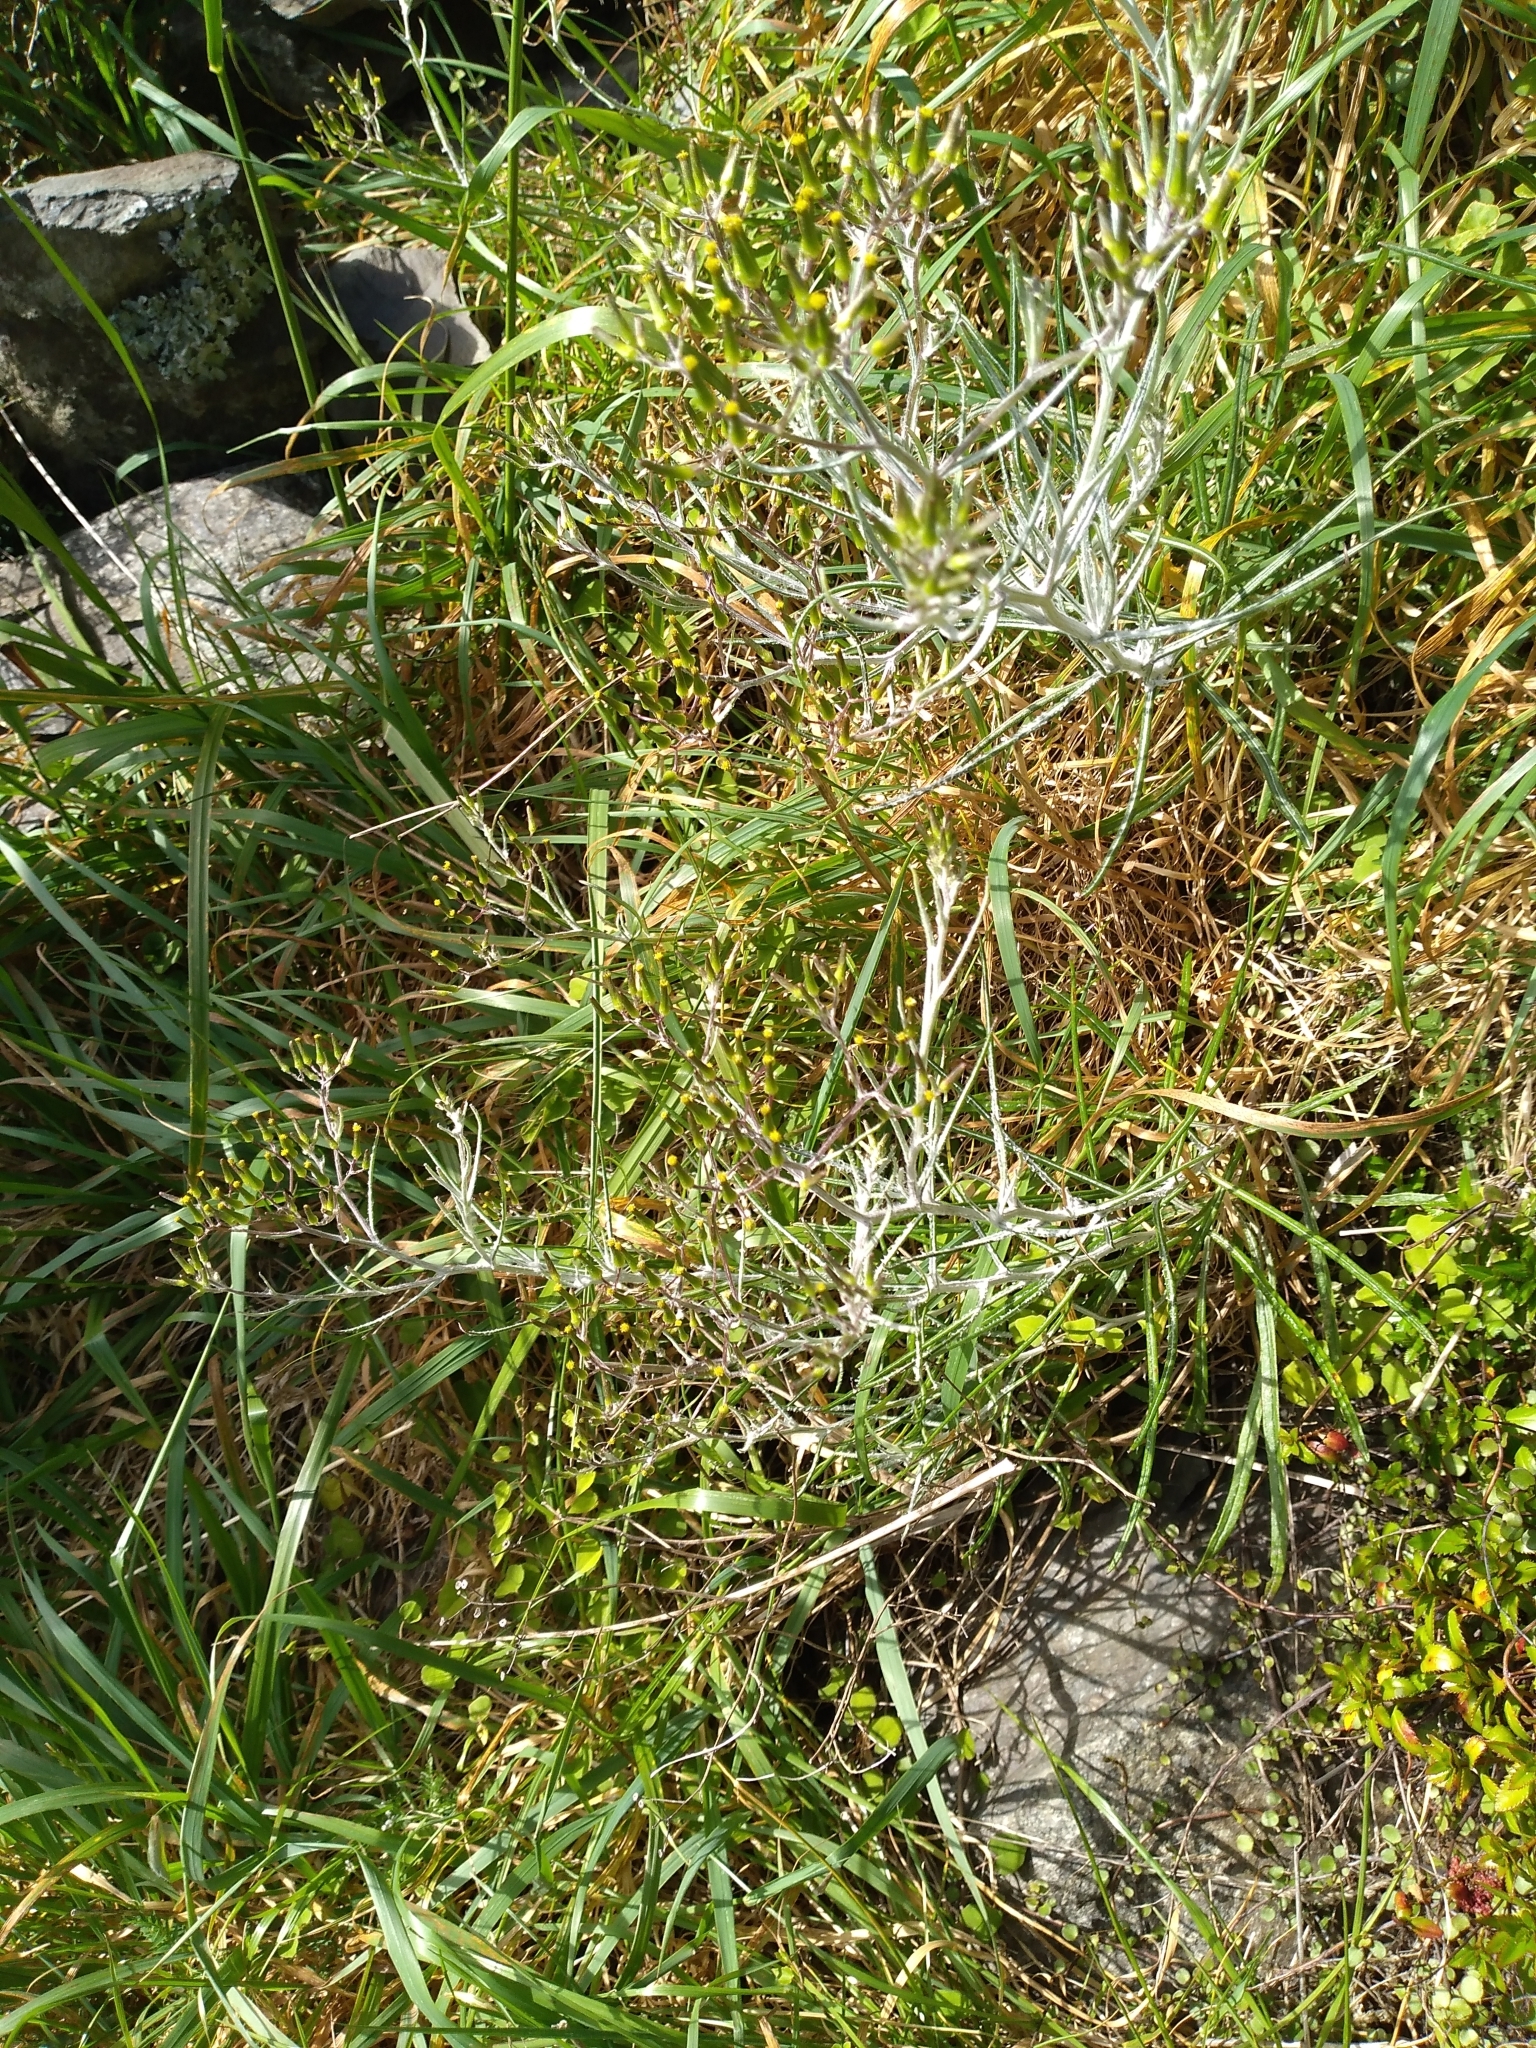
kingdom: Plantae
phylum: Tracheophyta
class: Magnoliopsida
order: Asterales
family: Asteraceae
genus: Senecio
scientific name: Senecio quadridentatus
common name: Cotton fireweed
